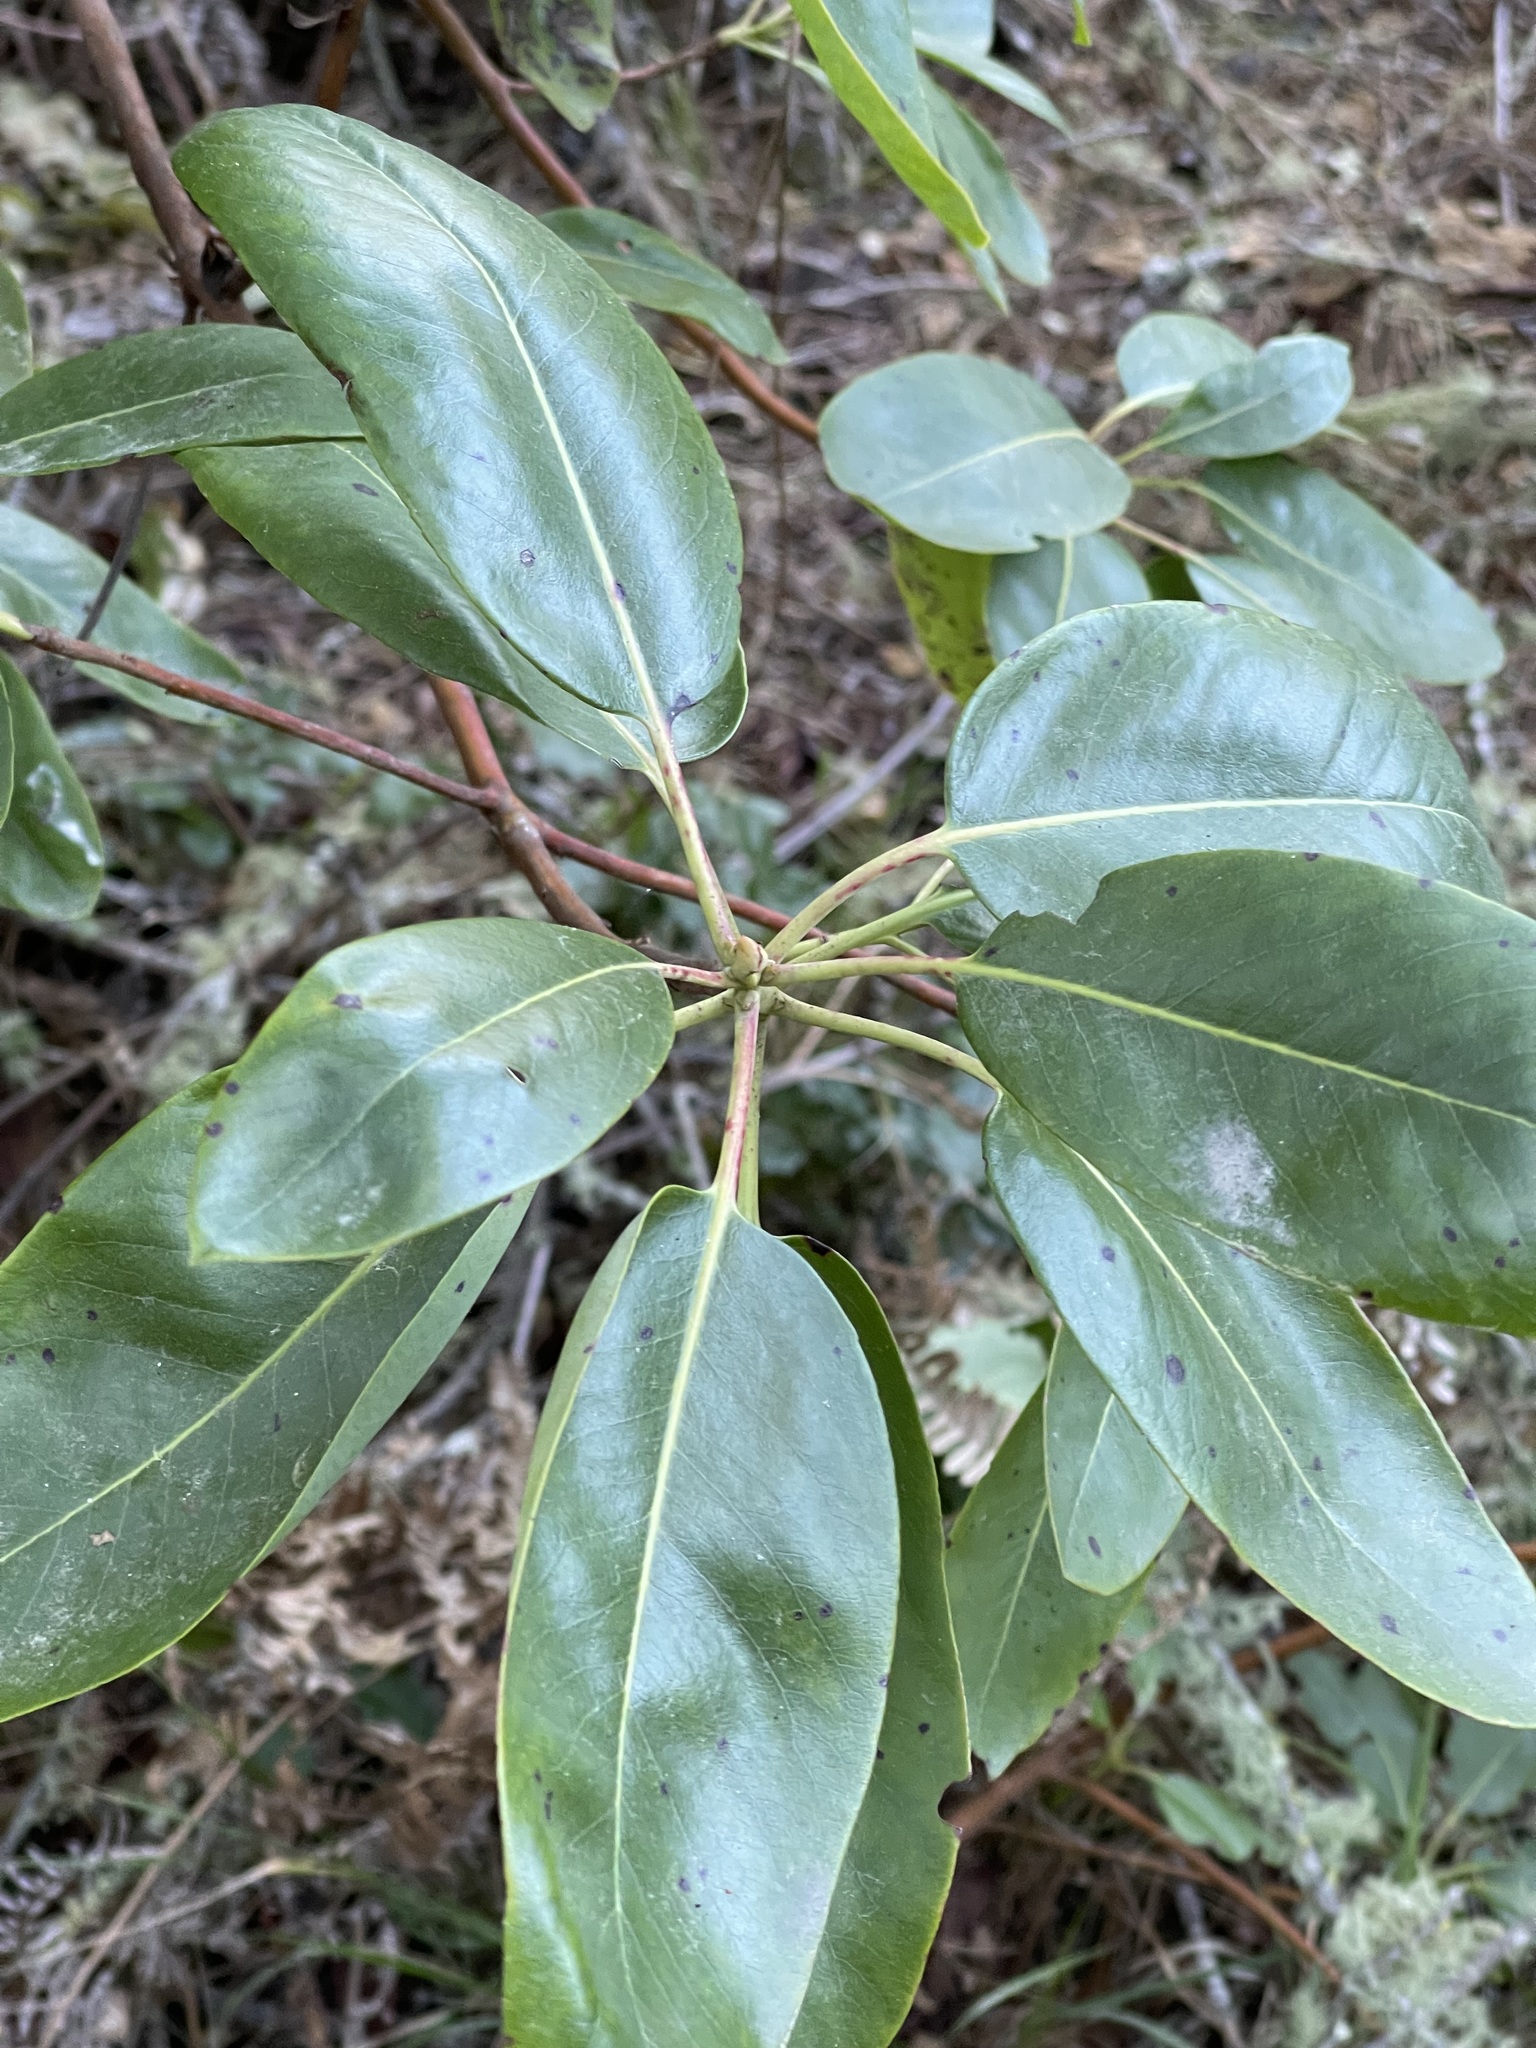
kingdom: Plantae
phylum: Tracheophyta
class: Magnoliopsida
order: Ericales
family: Ericaceae
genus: Arbutus
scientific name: Arbutus menziesii
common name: Pacific madrone
